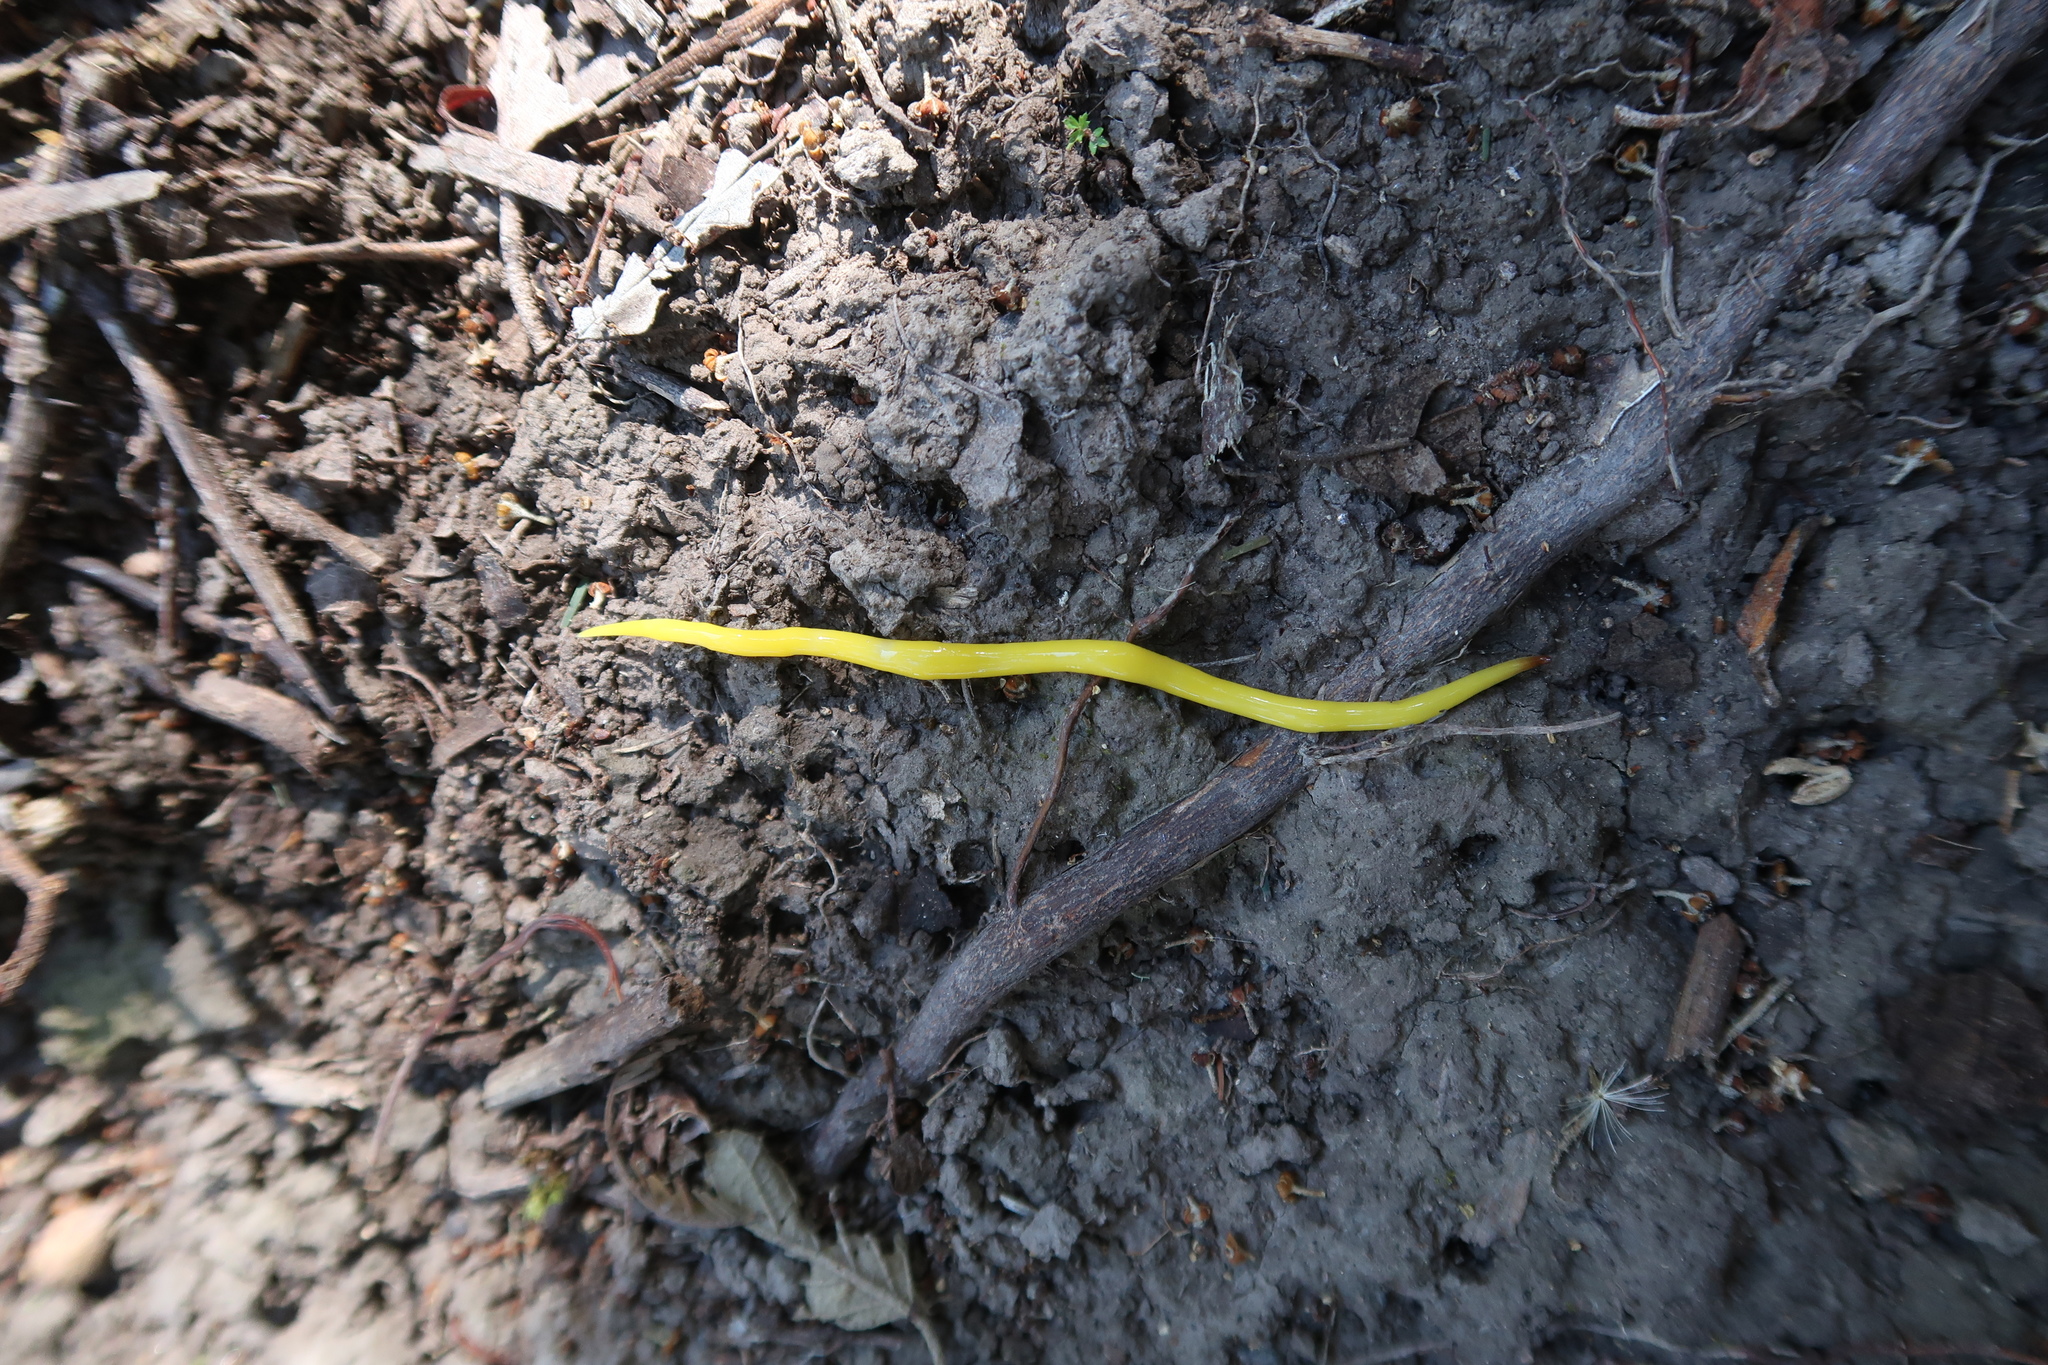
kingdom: Animalia
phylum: Platyhelminthes
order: Tricladida
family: Geoplanidae
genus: Fletchamia
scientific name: Fletchamia sugdeni
